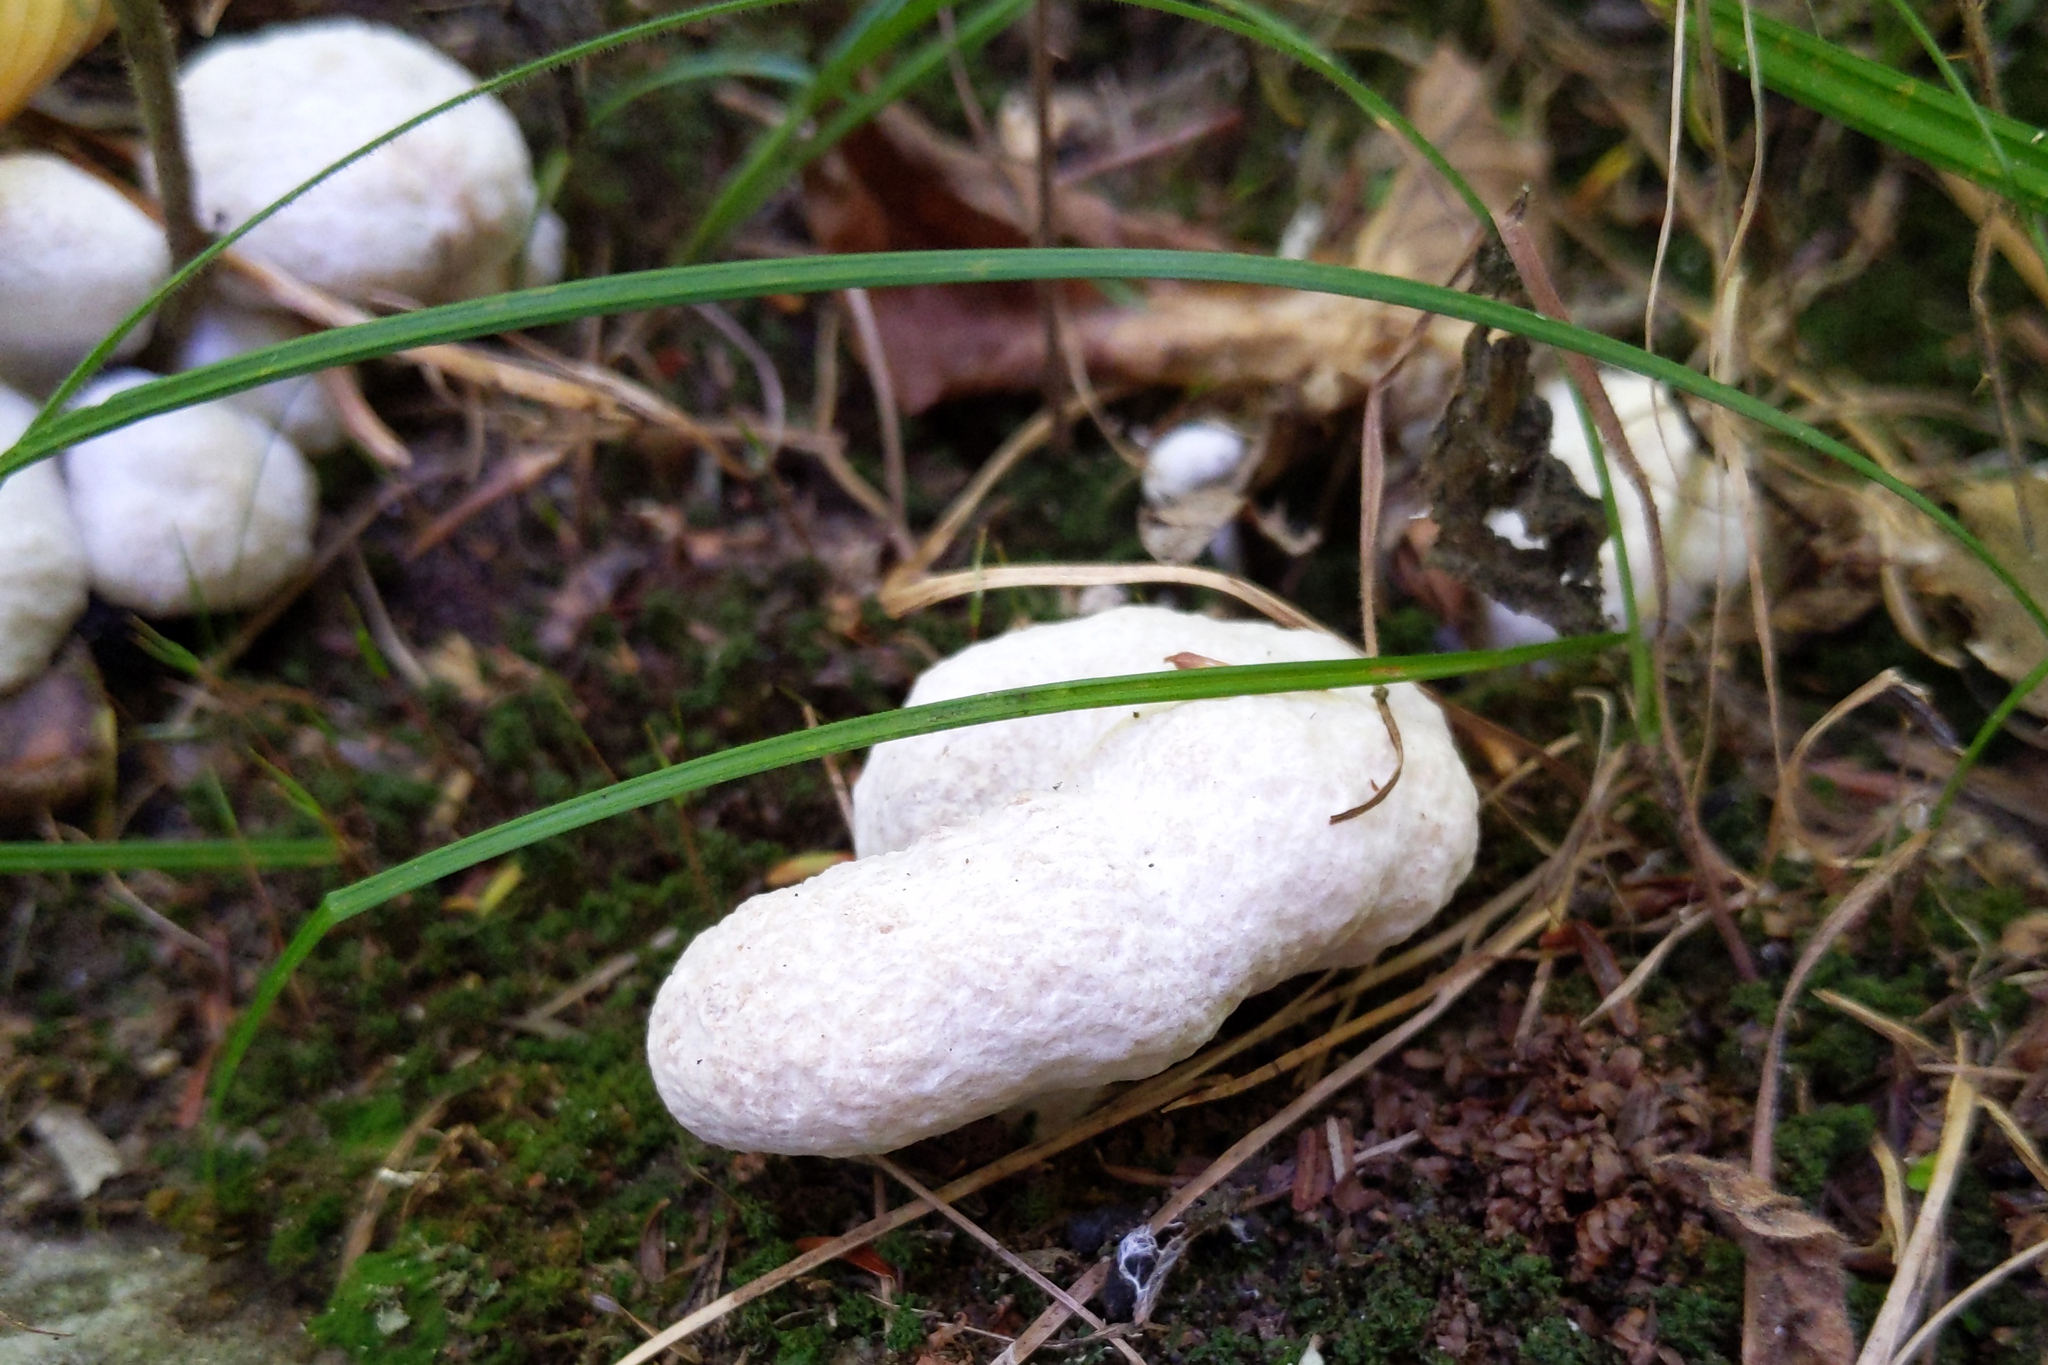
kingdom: Fungi
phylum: Basidiomycota
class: Agaricomycetes
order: Agaricales
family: Entolomataceae
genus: Entoloma
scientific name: Entoloma abortivum
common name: Aborted entoloma
